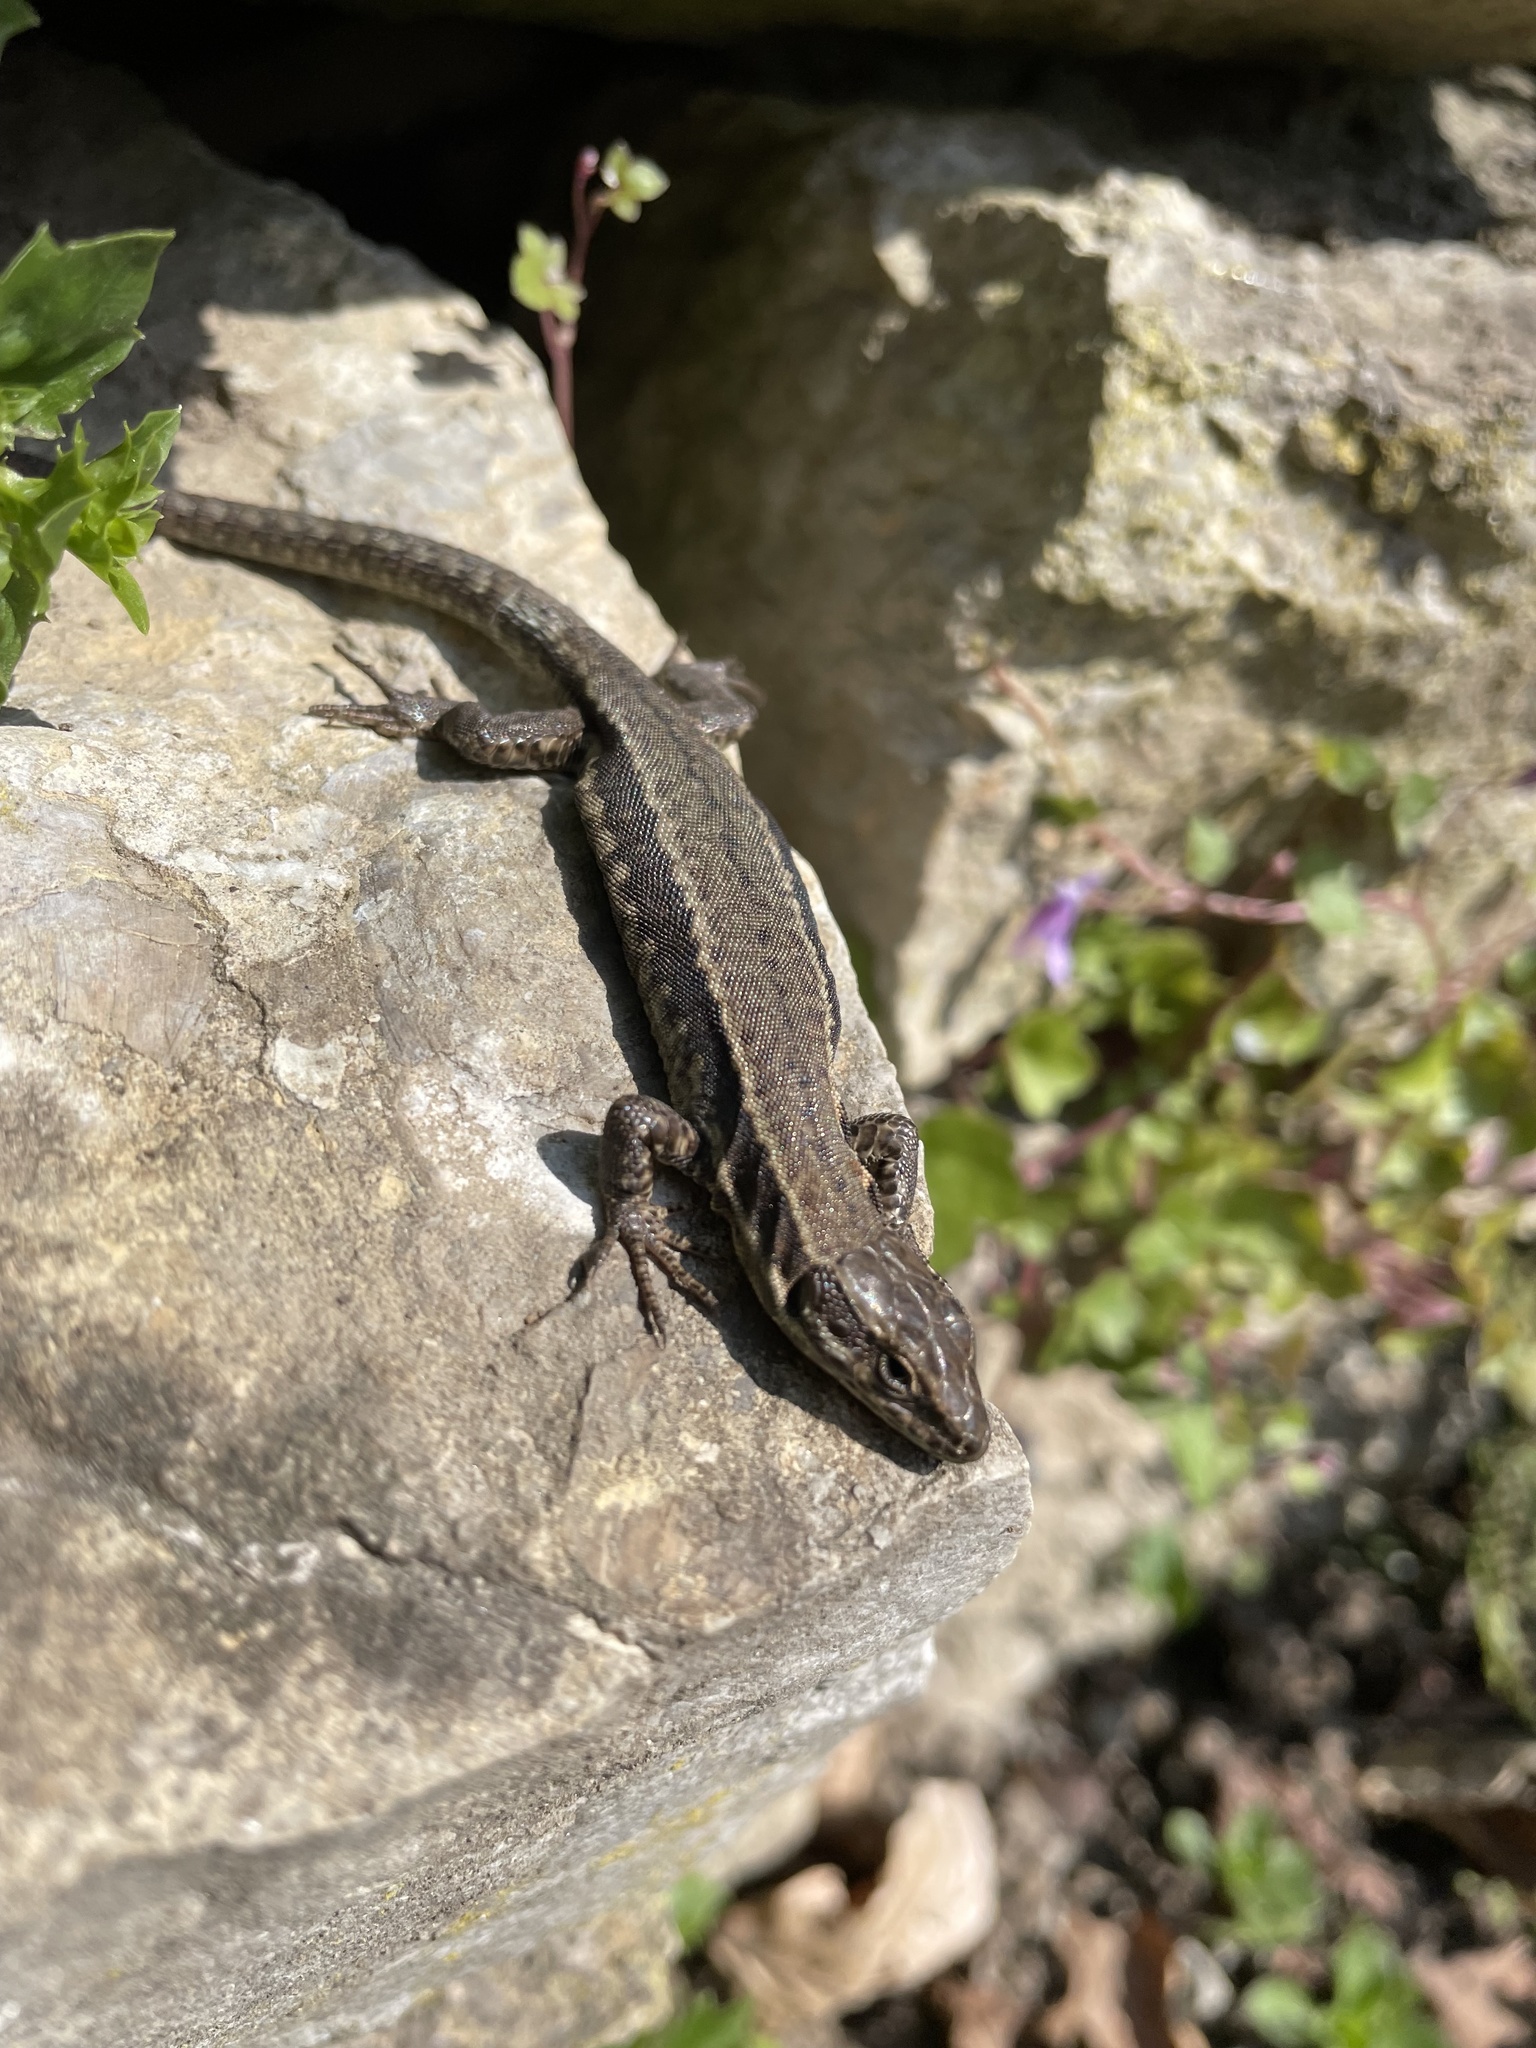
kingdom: Animalia
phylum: Chordata
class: Squamata
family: Lacertidae
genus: Podarcis
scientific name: Podarcis muralis
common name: Common wall lizard
